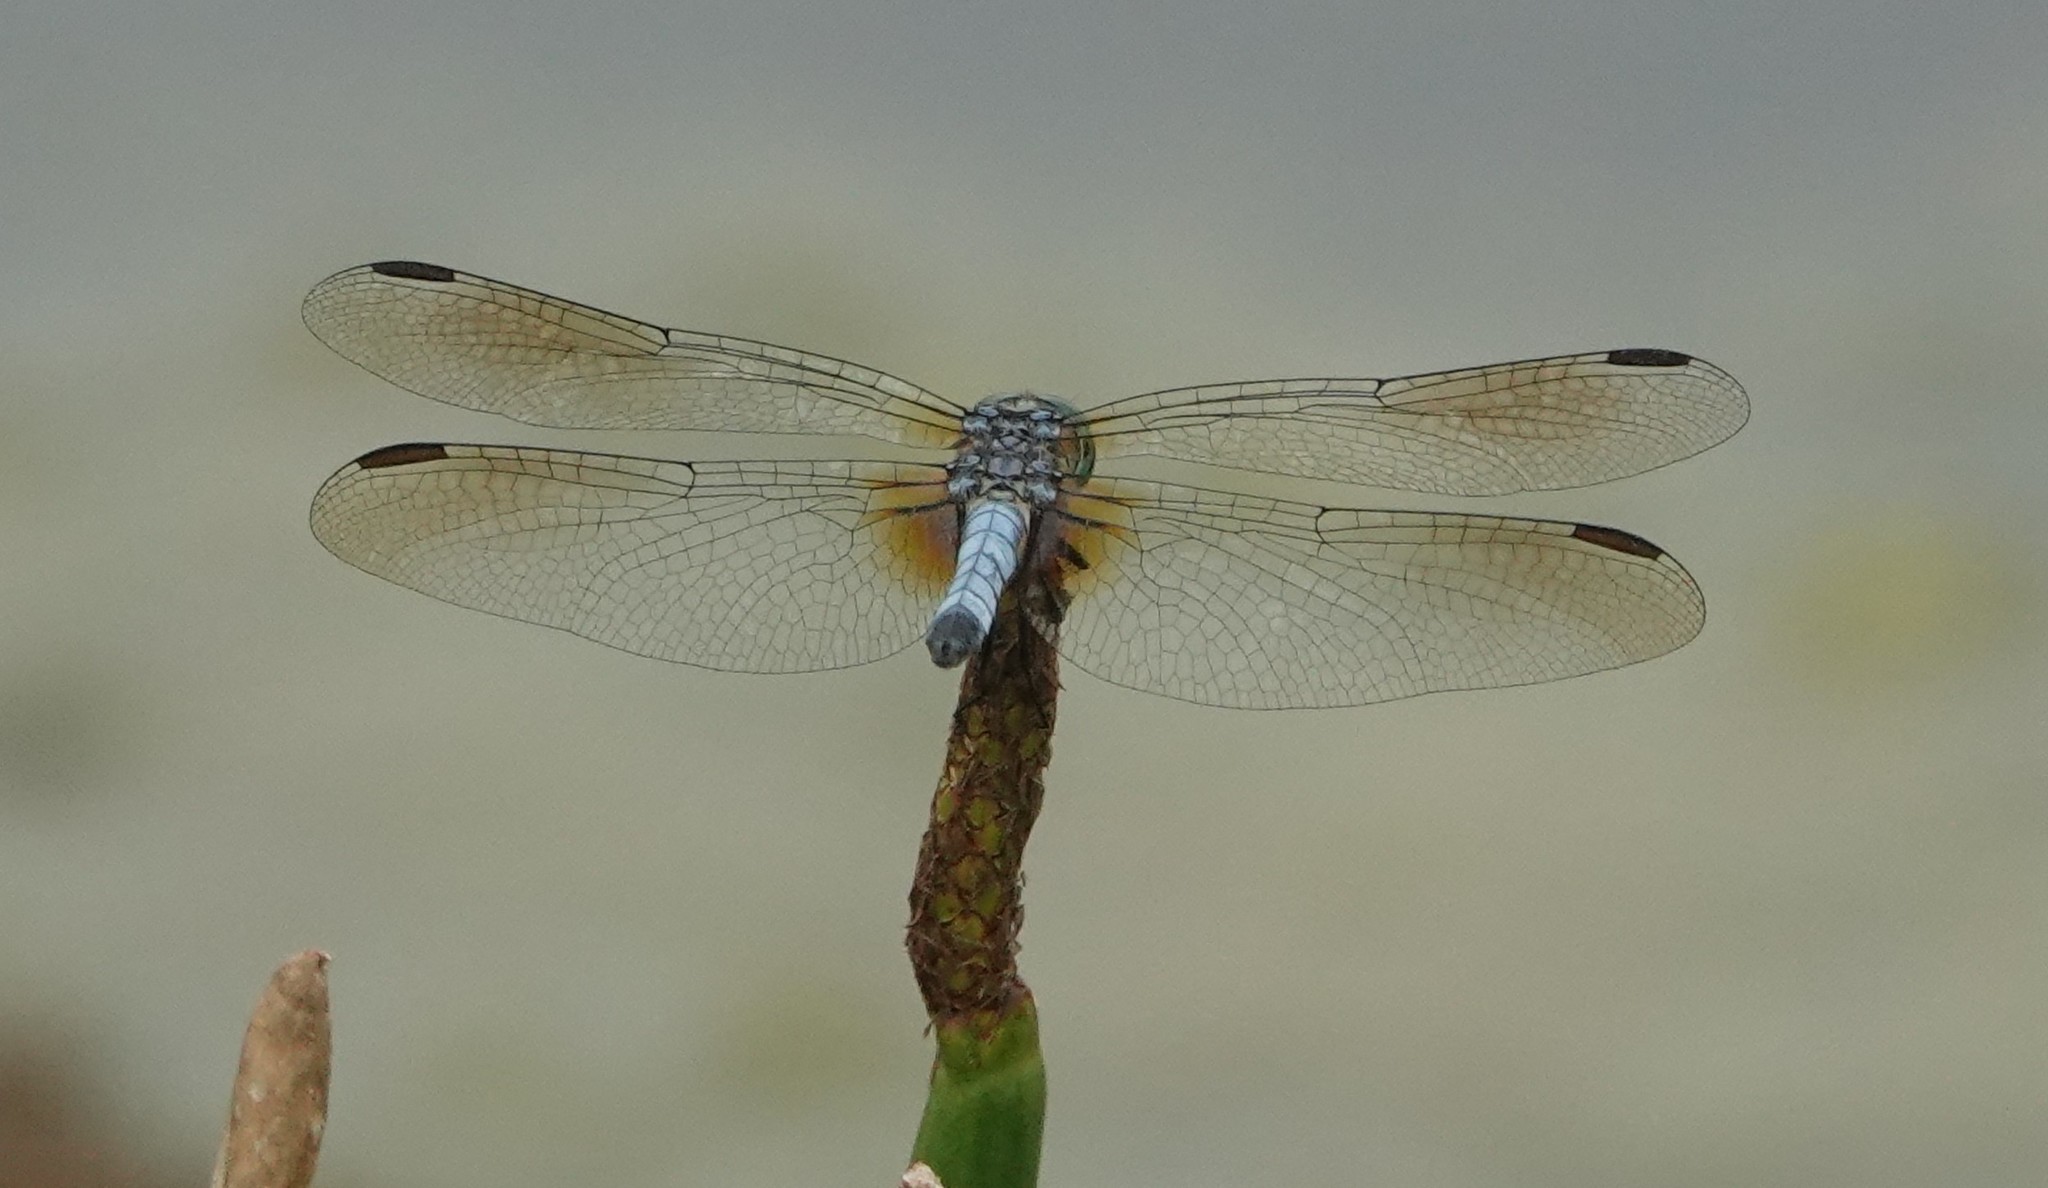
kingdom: Animalia
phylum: Arthropoda
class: Insecta
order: Odonata
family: Libellulidae
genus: Pachydiplax
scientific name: Pachydiplax longipennis
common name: Blue dasher
